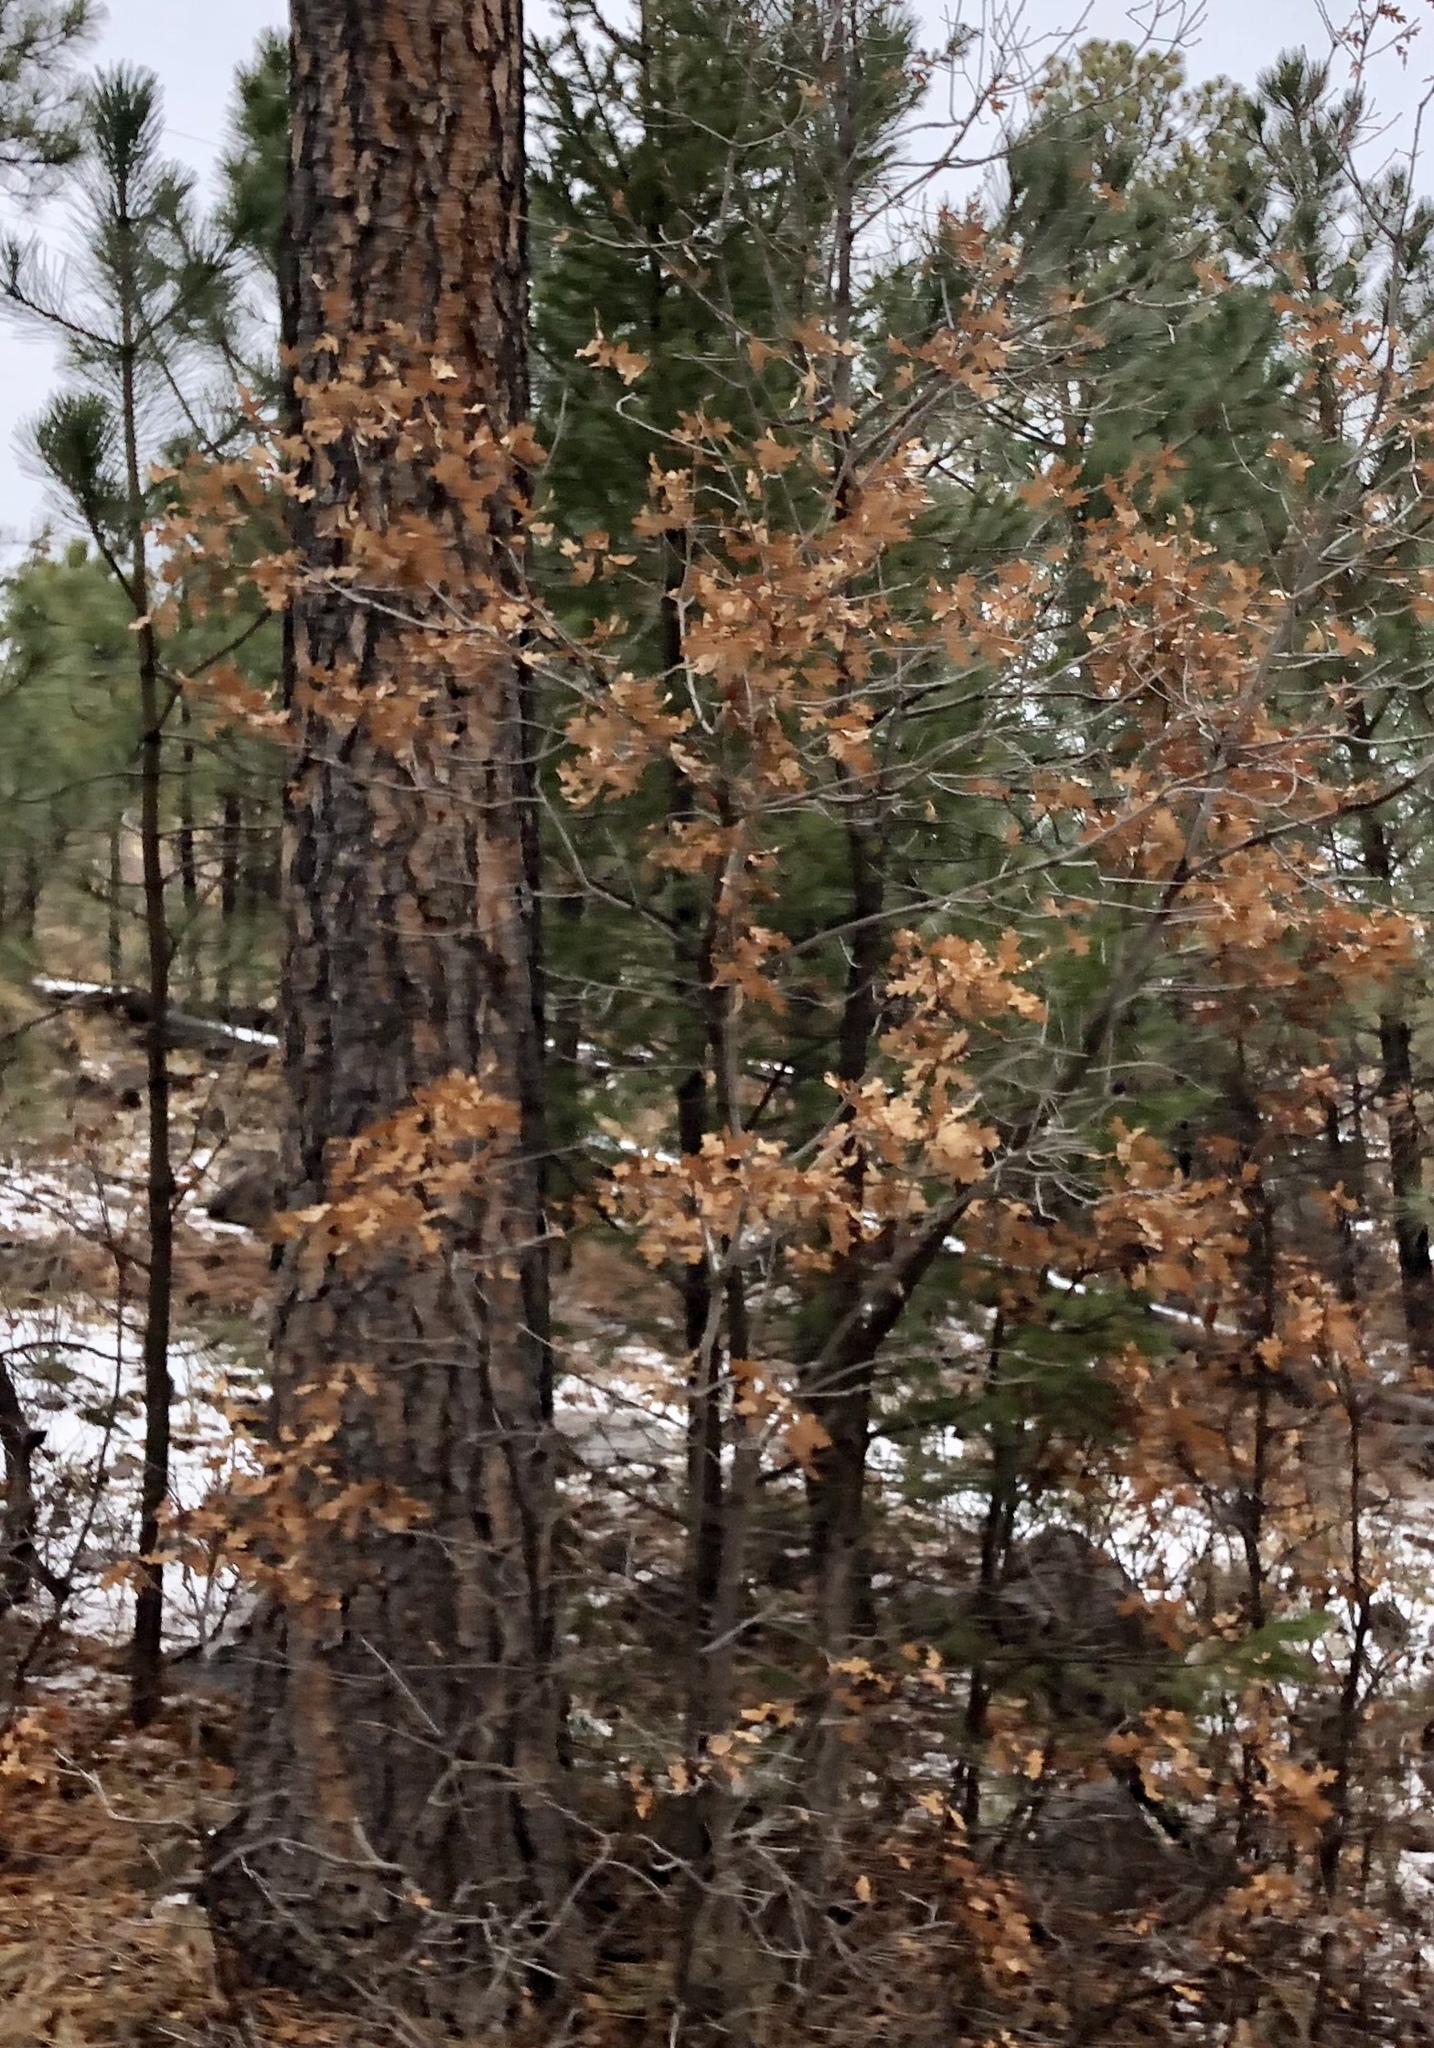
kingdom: Plantae
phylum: Tracheophyta
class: Magnoliopsida
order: Fagales
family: Fagaceae
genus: Quercus
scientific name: Quercus gambelii
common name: Gambel oak
